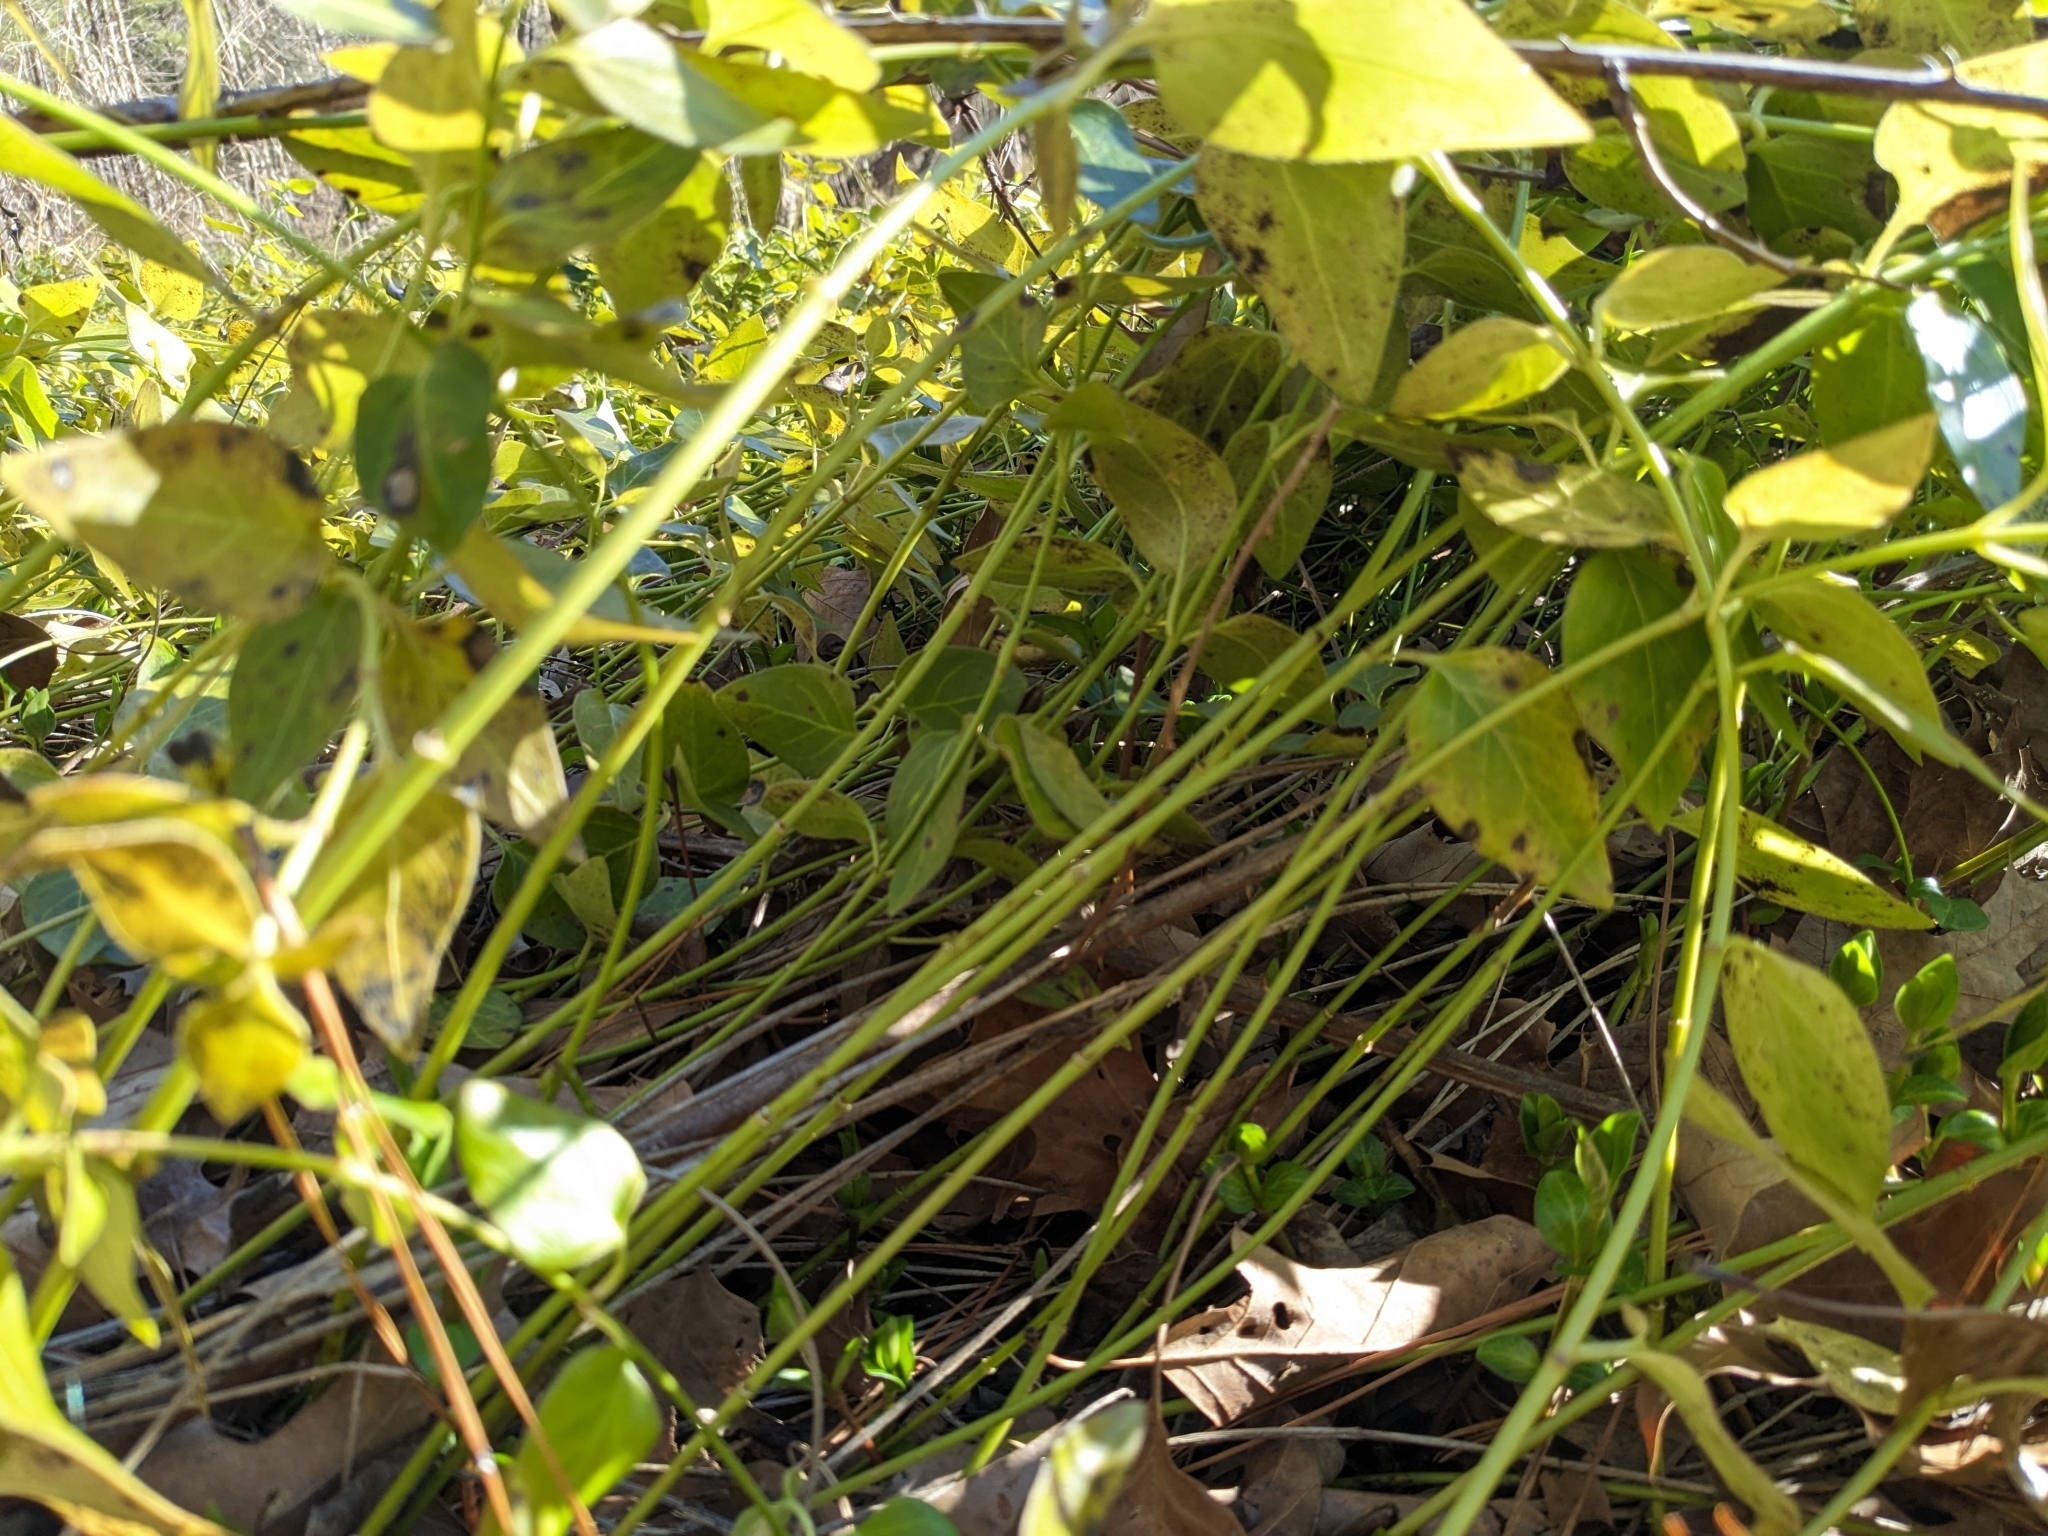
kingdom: Plantae
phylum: Tracheophyta
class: Magnoliopsida
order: Gentianales
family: Apocynaceae
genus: Vinca
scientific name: Vinca major
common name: Greater periwinkle
